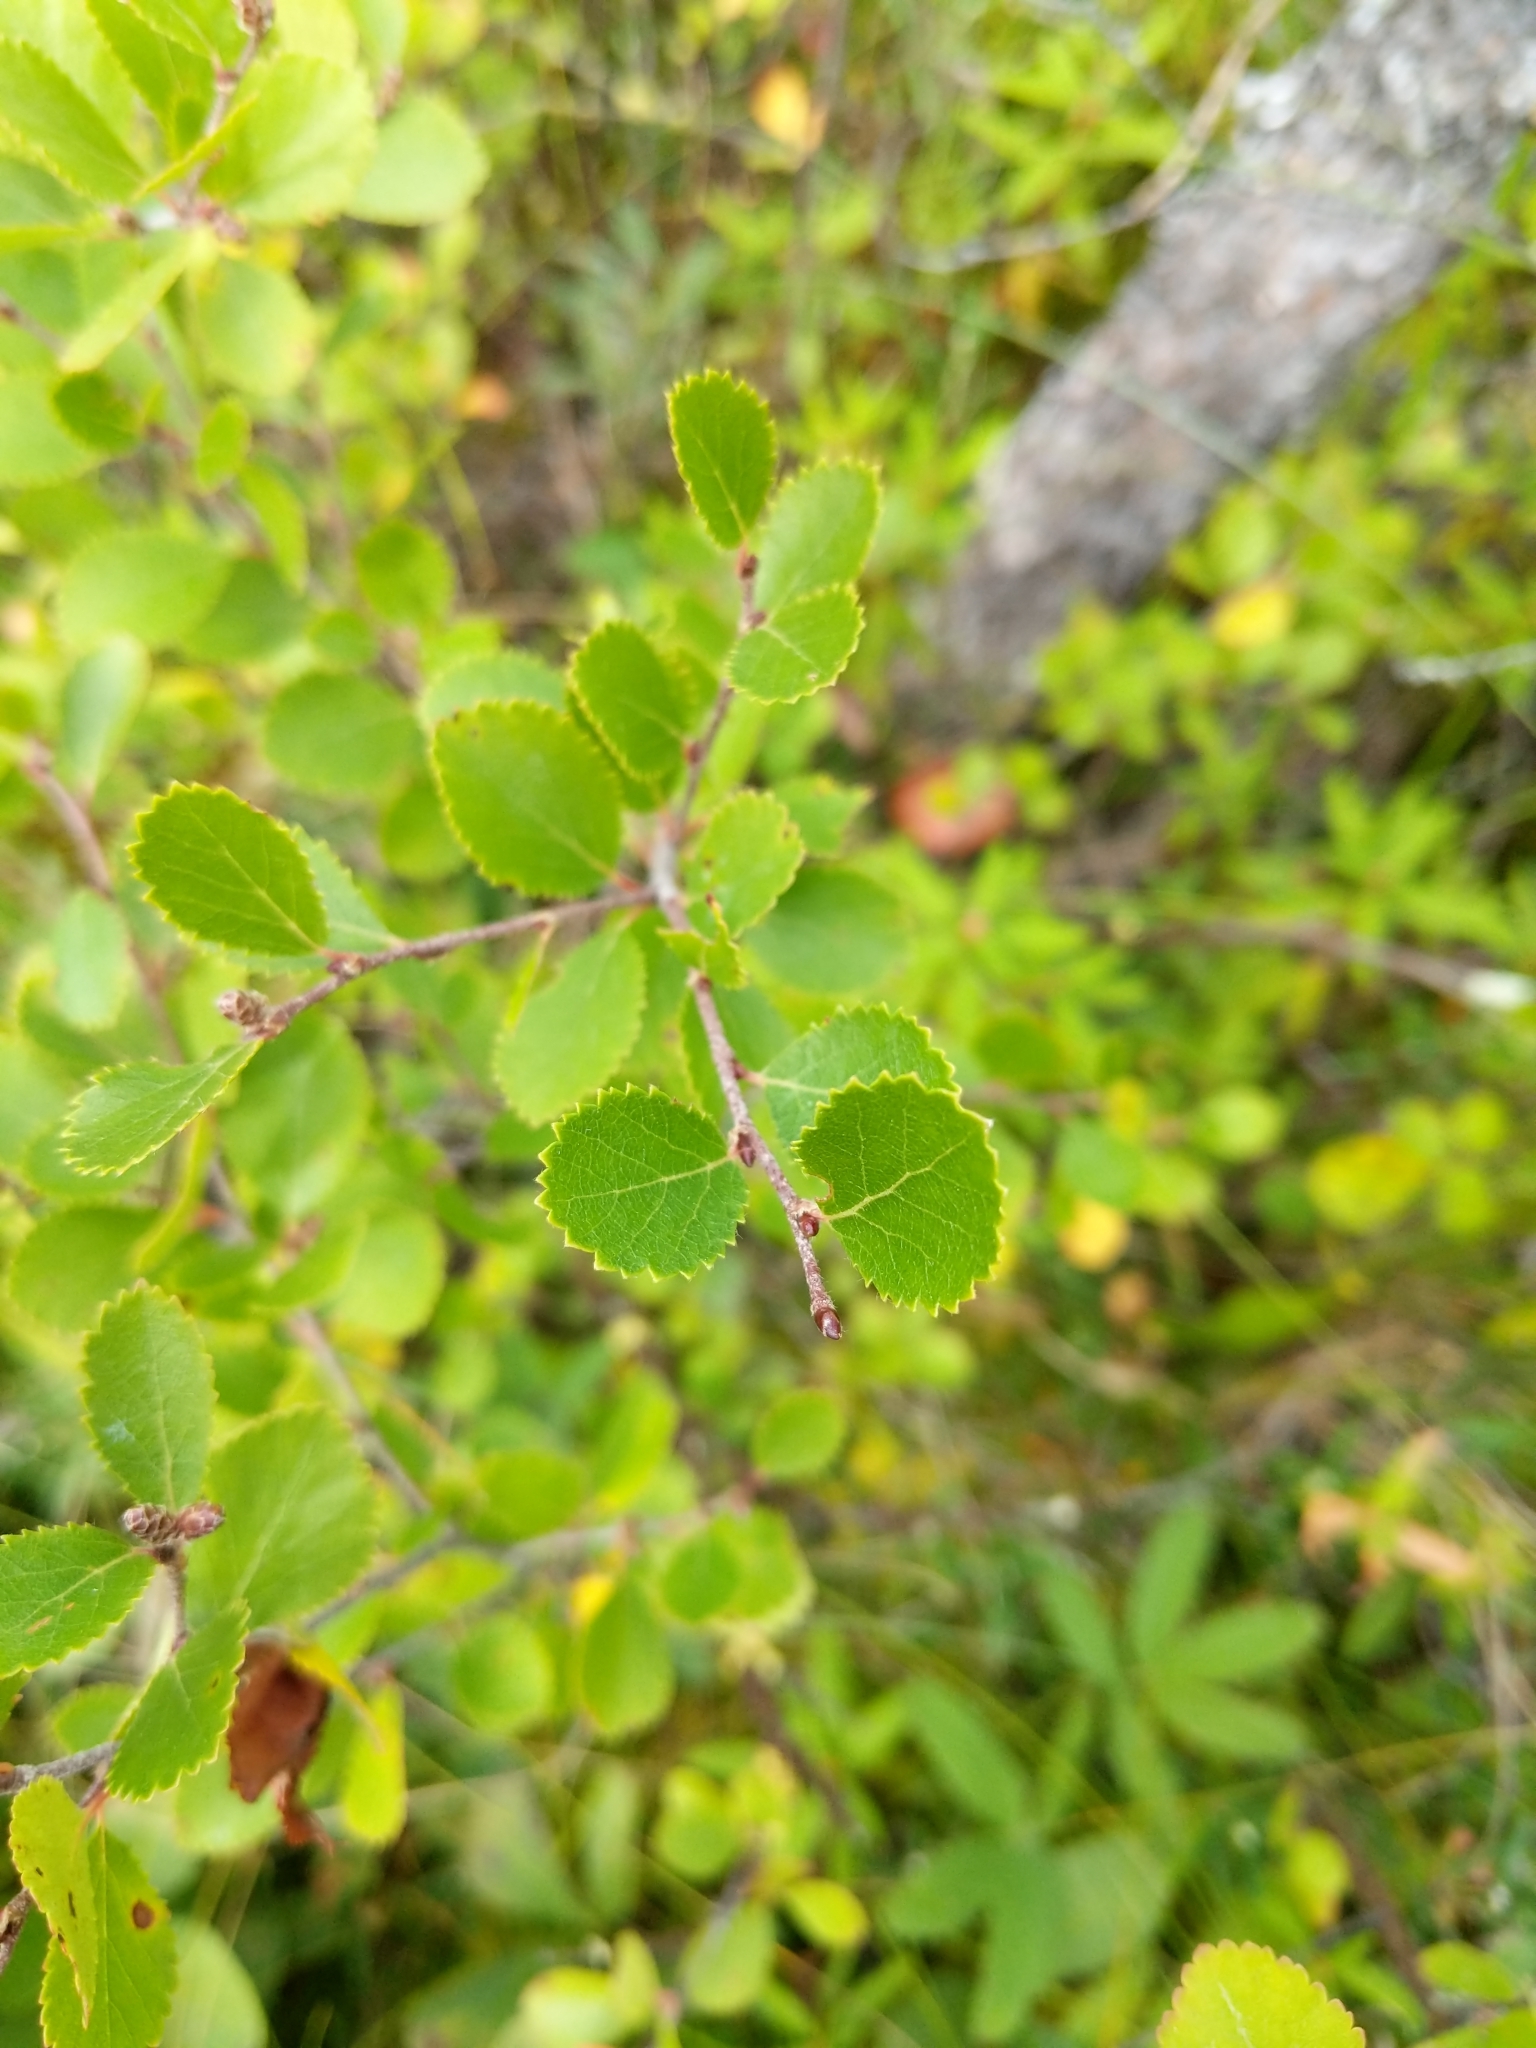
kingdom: Plantae
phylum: Tracheophyta
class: Magnoliopsida
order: Fagales
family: Betulaceae
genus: Betula
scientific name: Betula pumila
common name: Bog birch
